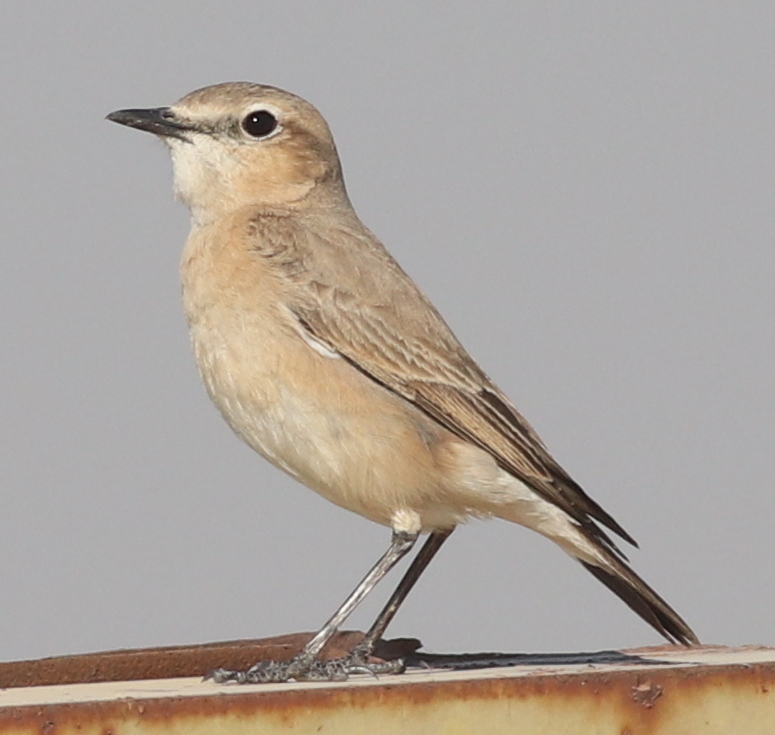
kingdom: Animalia
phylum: Chordata
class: Aves
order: Passeriformes
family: Muscicapidae
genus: Oenanthe
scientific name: Oenanthe isabellina
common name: Isabelline wheatear
